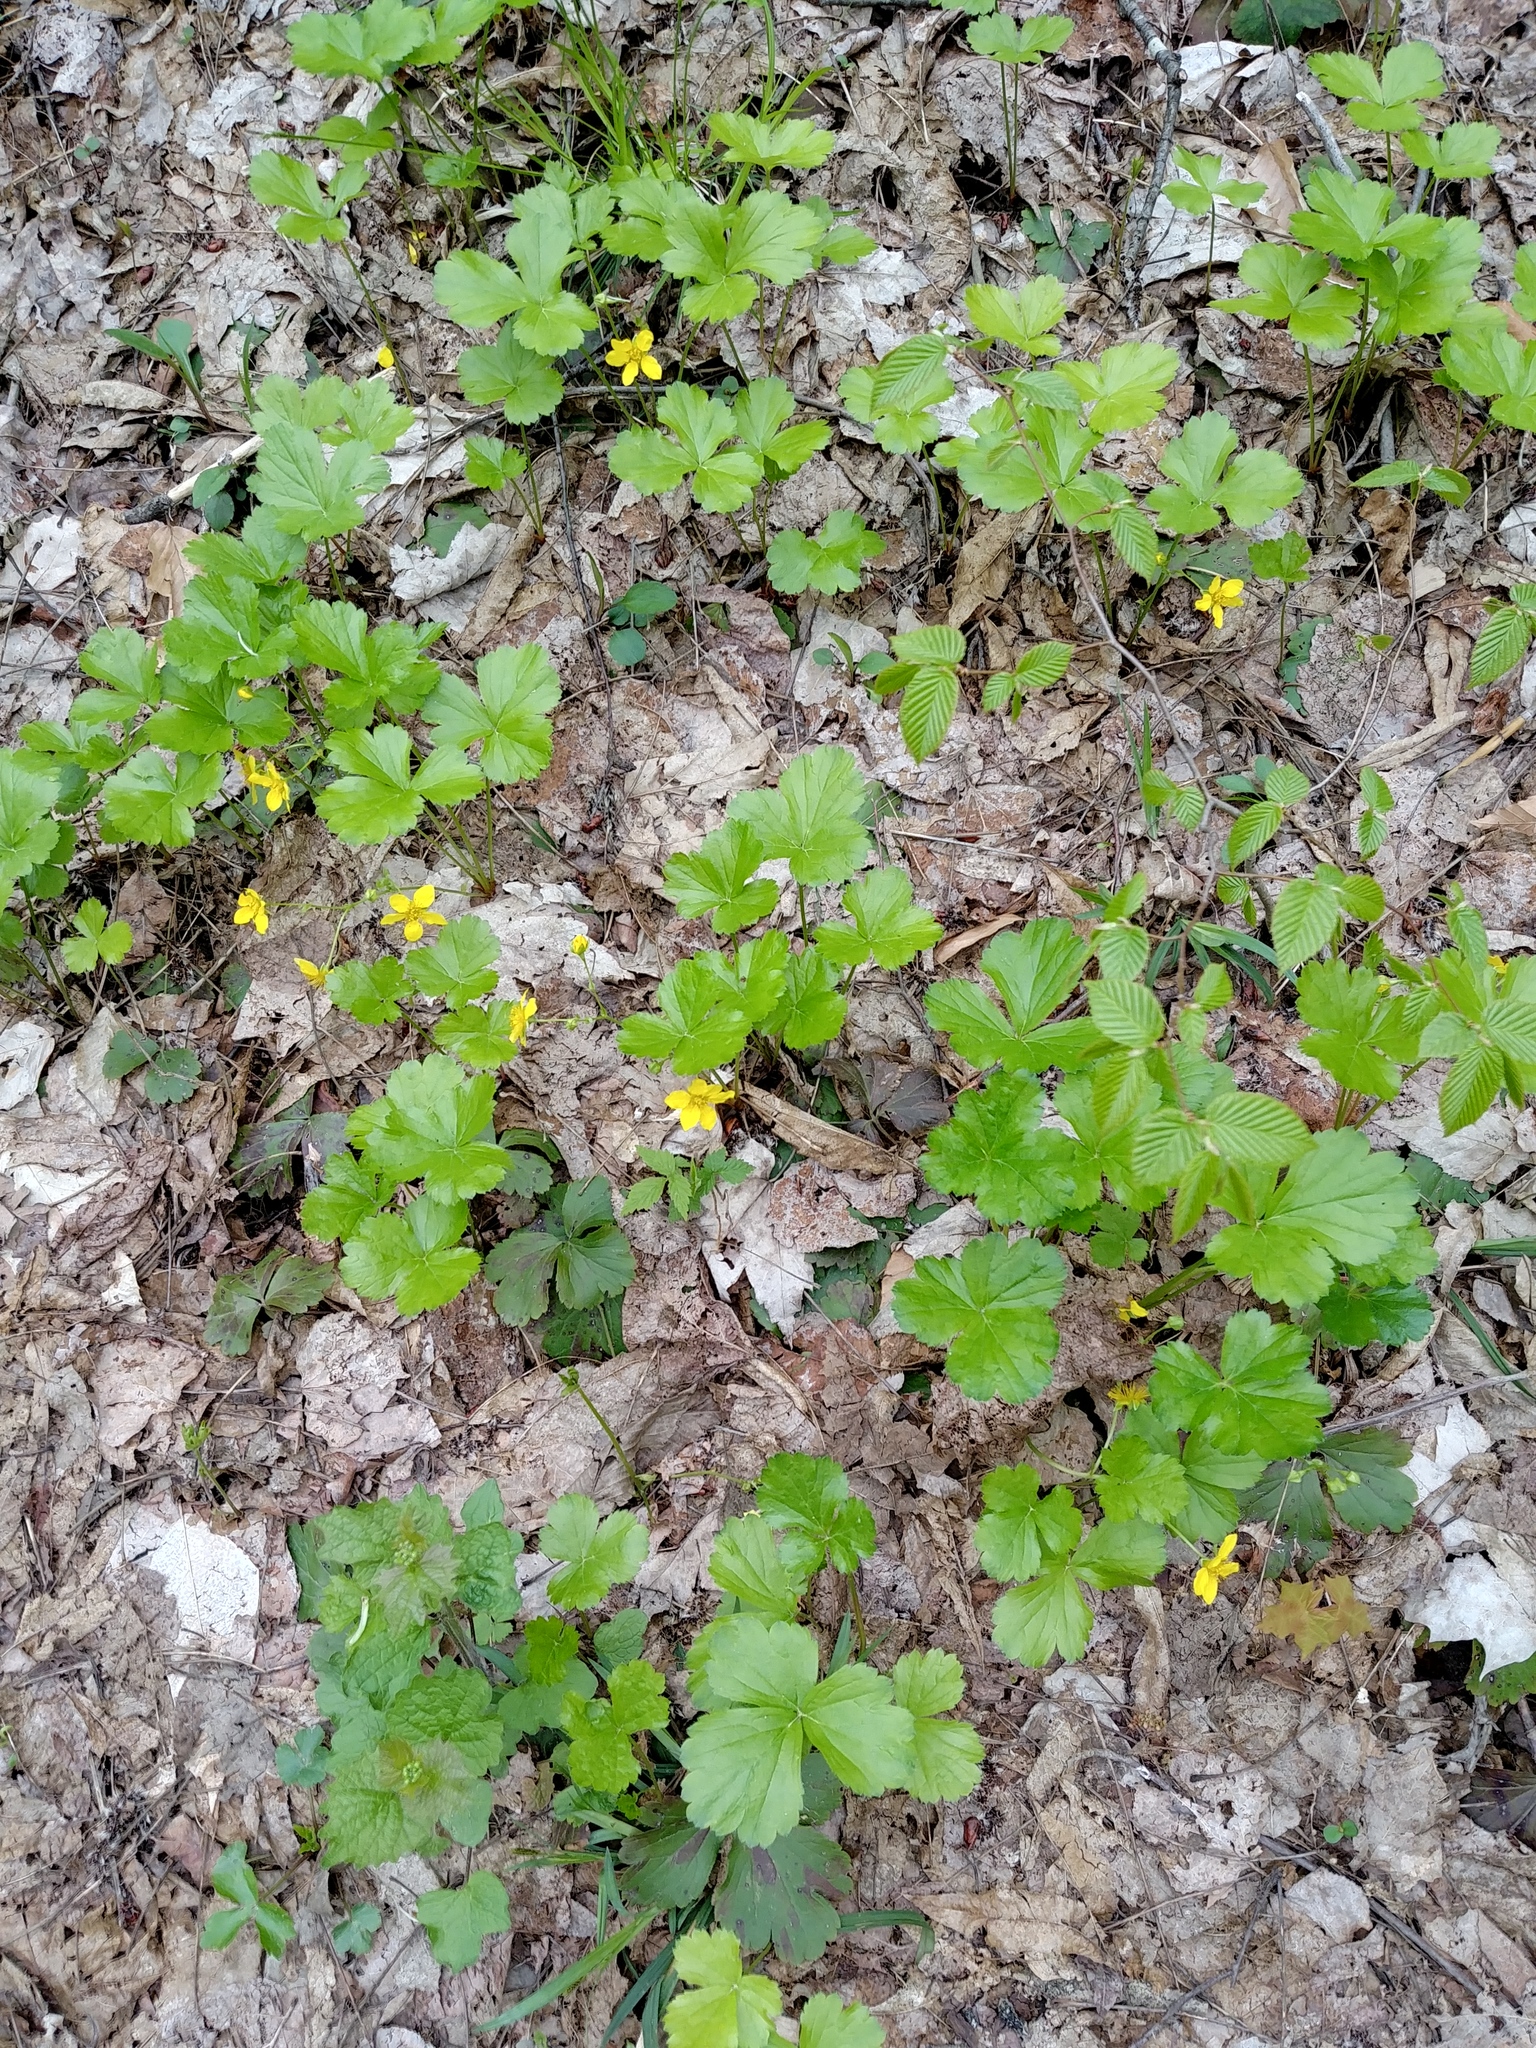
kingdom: Plantae
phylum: Tracheophyta
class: Magnoliopsida
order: Rosales
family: Rosaceae
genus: Geum
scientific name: Geum fragarioides
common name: Appalachian barren strawberry
